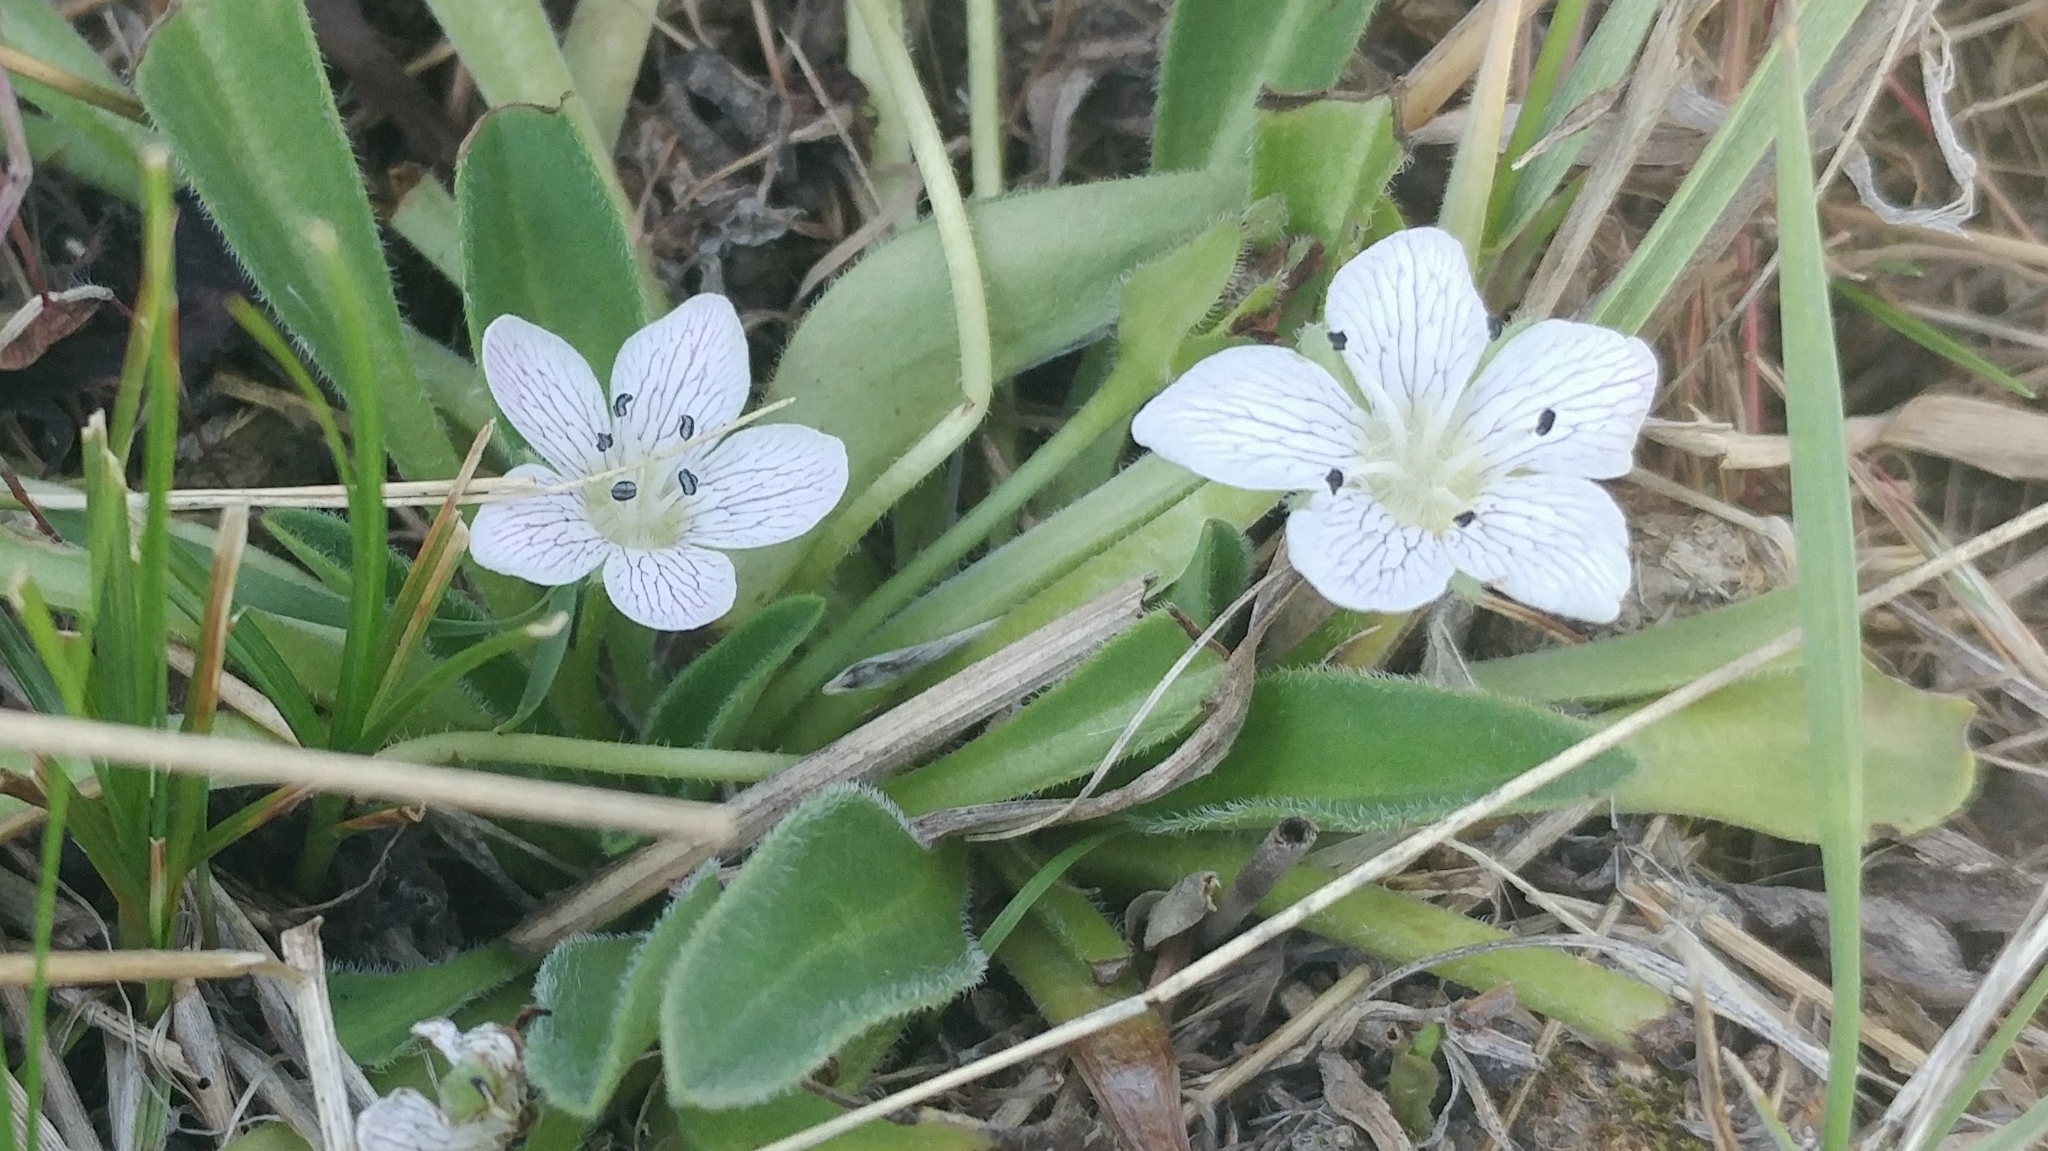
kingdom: Plantae
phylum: Tracheophyta
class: Magnoliopsida
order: Boraginales
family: Hydrophyllaceae
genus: Hesperochiron
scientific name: Hesperochiron californicus
